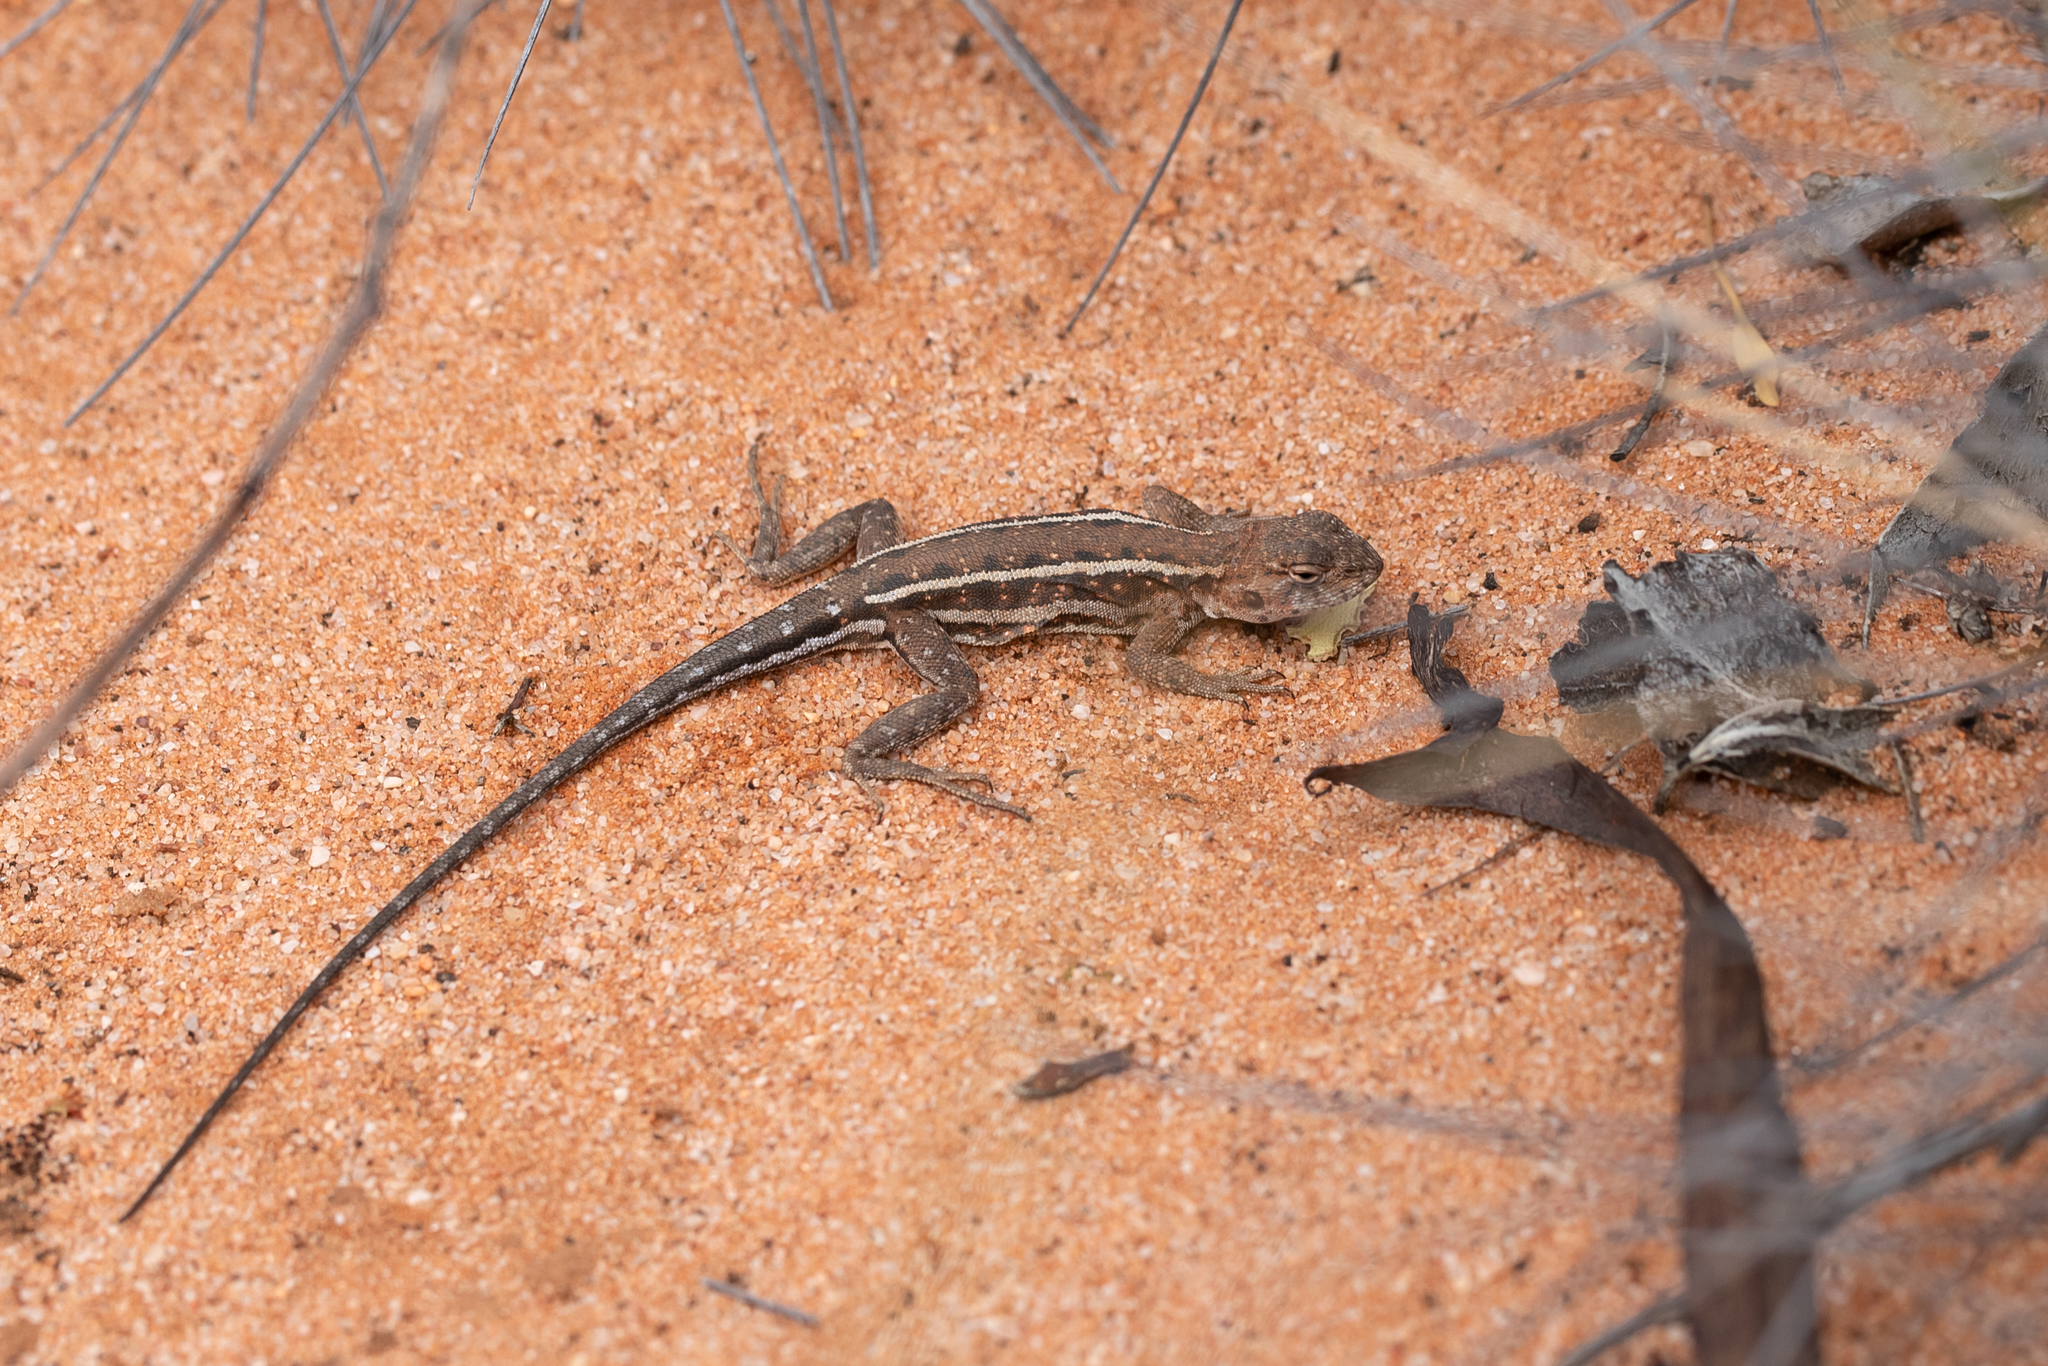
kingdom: Animalia
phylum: Chordata
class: Squamata
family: Agamidae
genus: Ctenophorus
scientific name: Ctenophorus spinodomus
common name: Eastern mallee dragon
